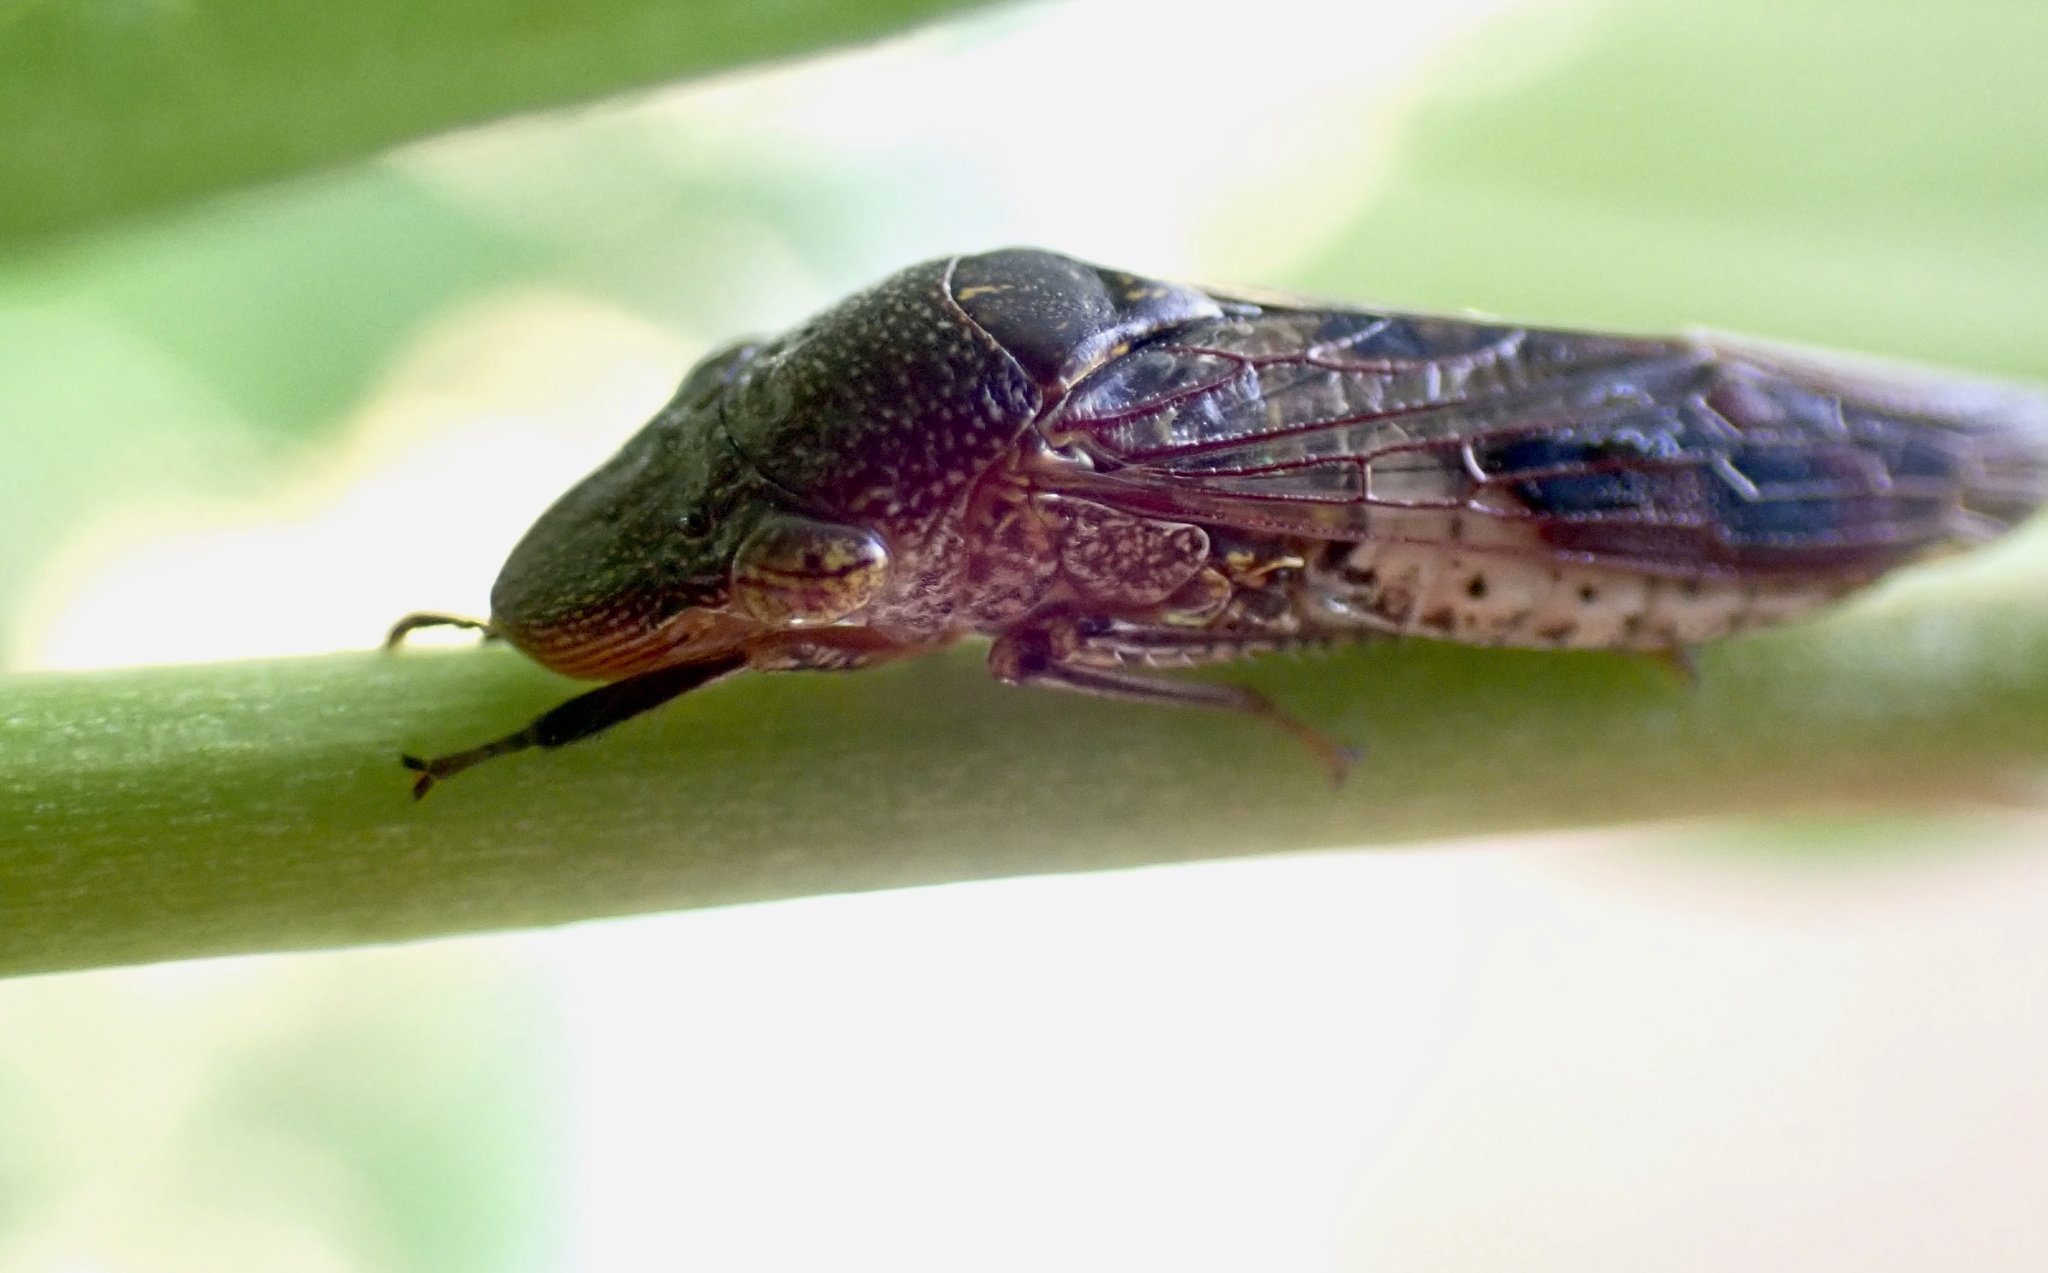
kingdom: Animalia
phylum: Arthropoda
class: Insecta
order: Hemiptera
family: Cicadellidae
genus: Homalodisca
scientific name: Homalodisca vitripennis
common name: Glassy-winged sharpshooter
